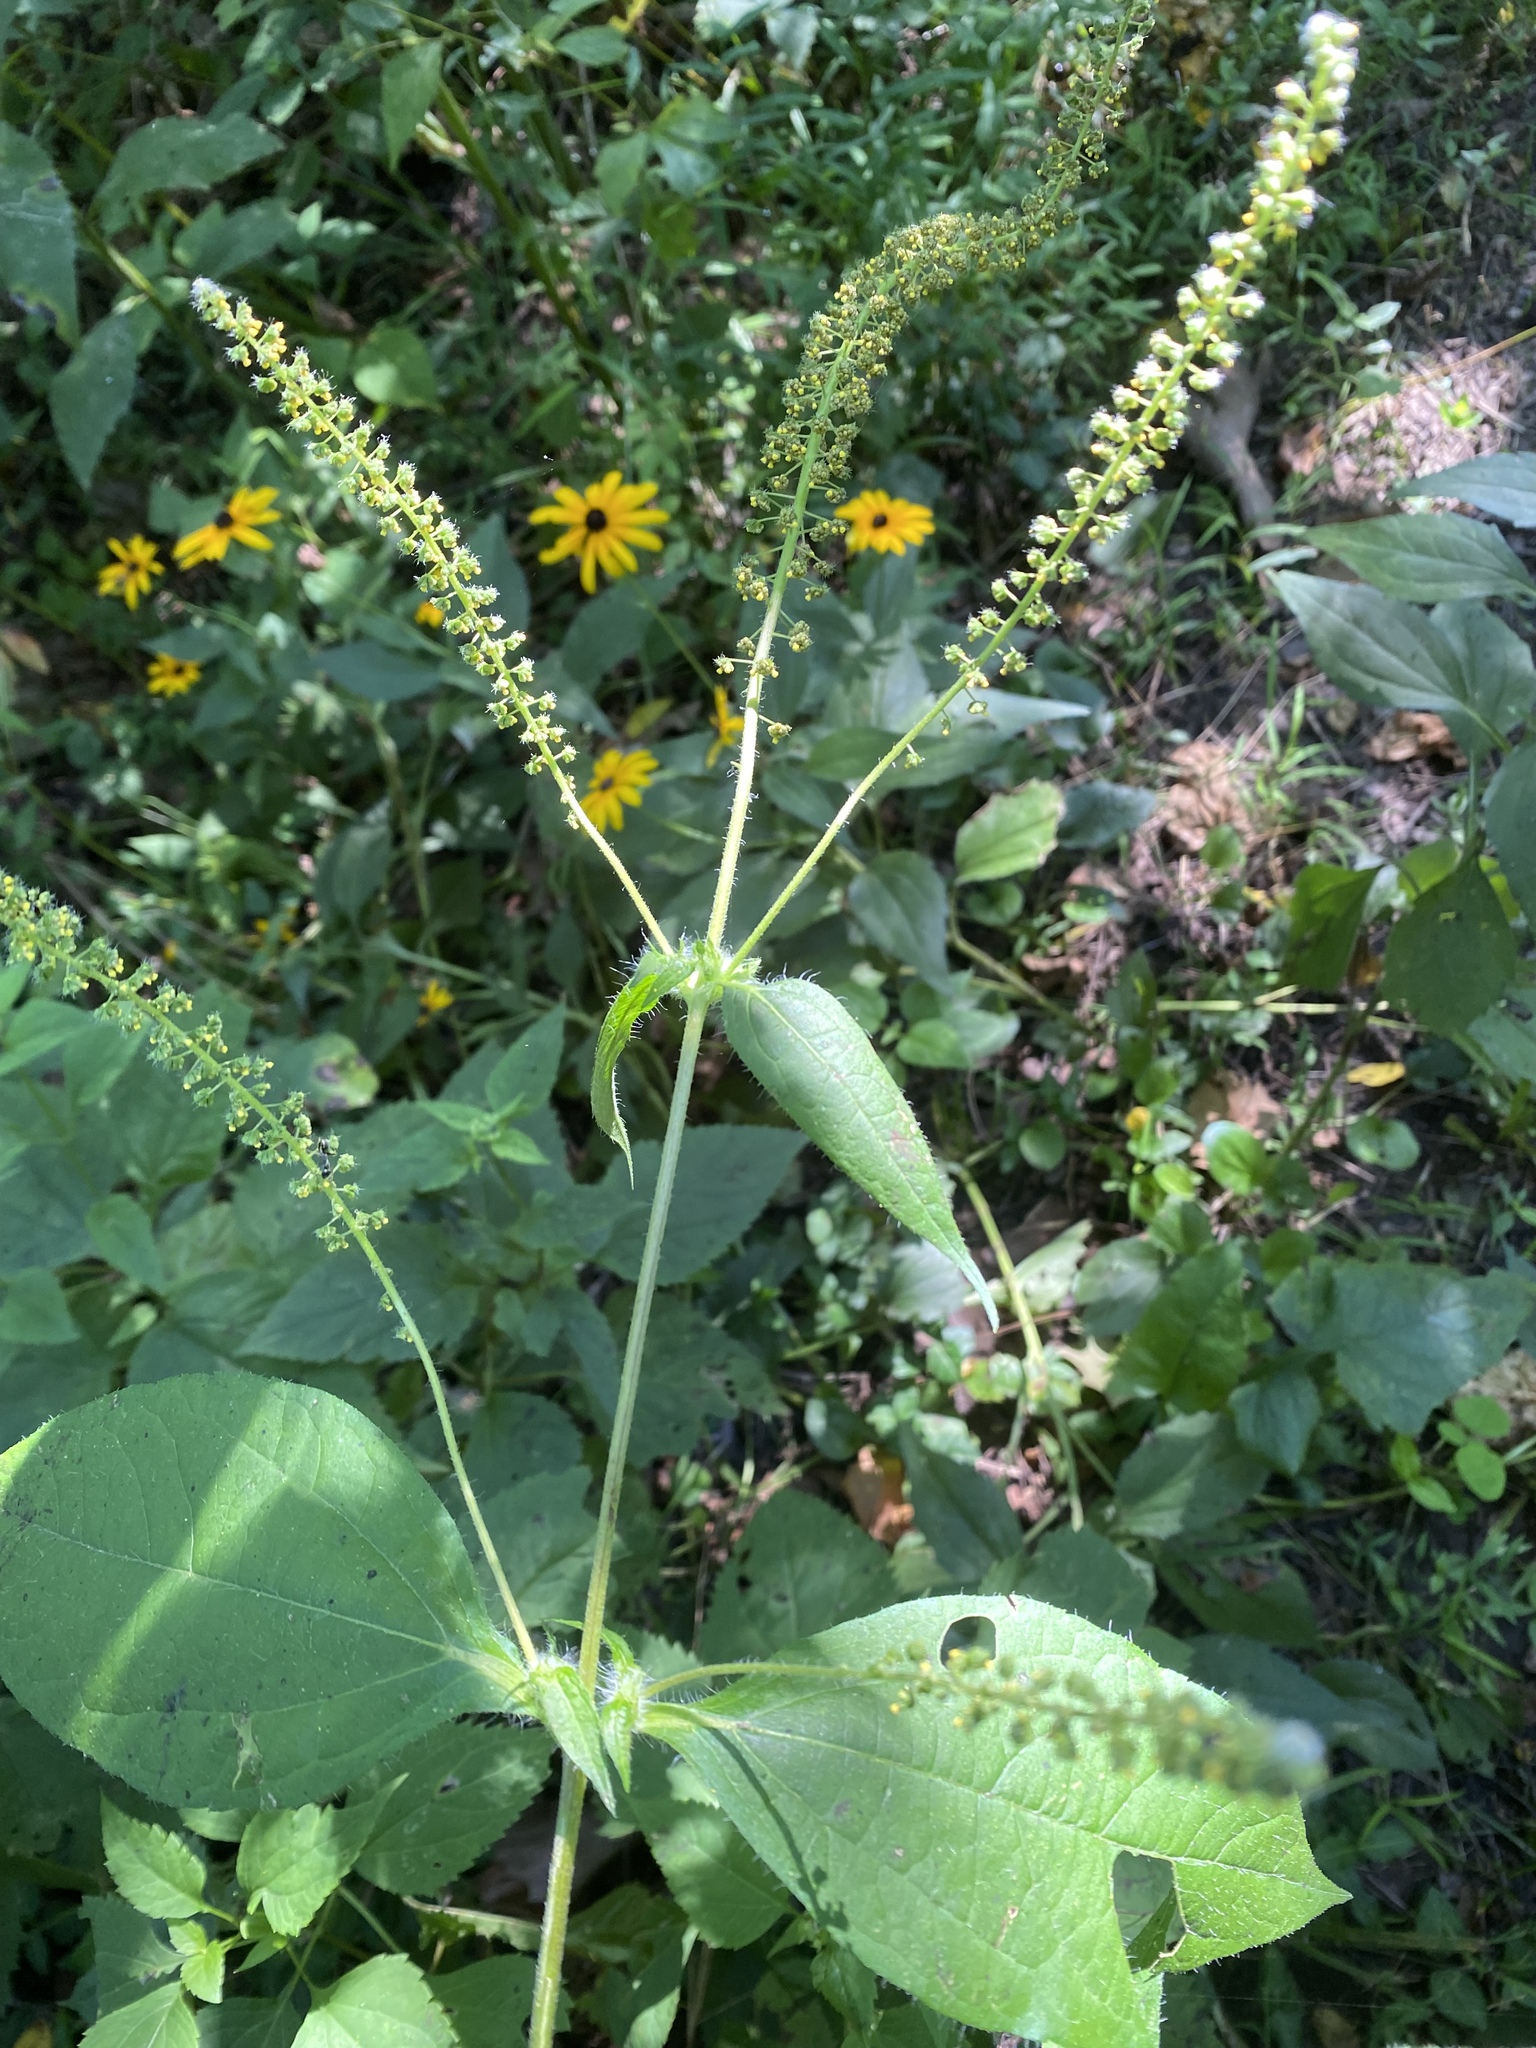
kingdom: Plantae
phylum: Tracheophyta
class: Magnoliopsida
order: Asterales
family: Asteraceae
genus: Ambrosia
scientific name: Ambrosia trifida
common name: Giant ragweed
